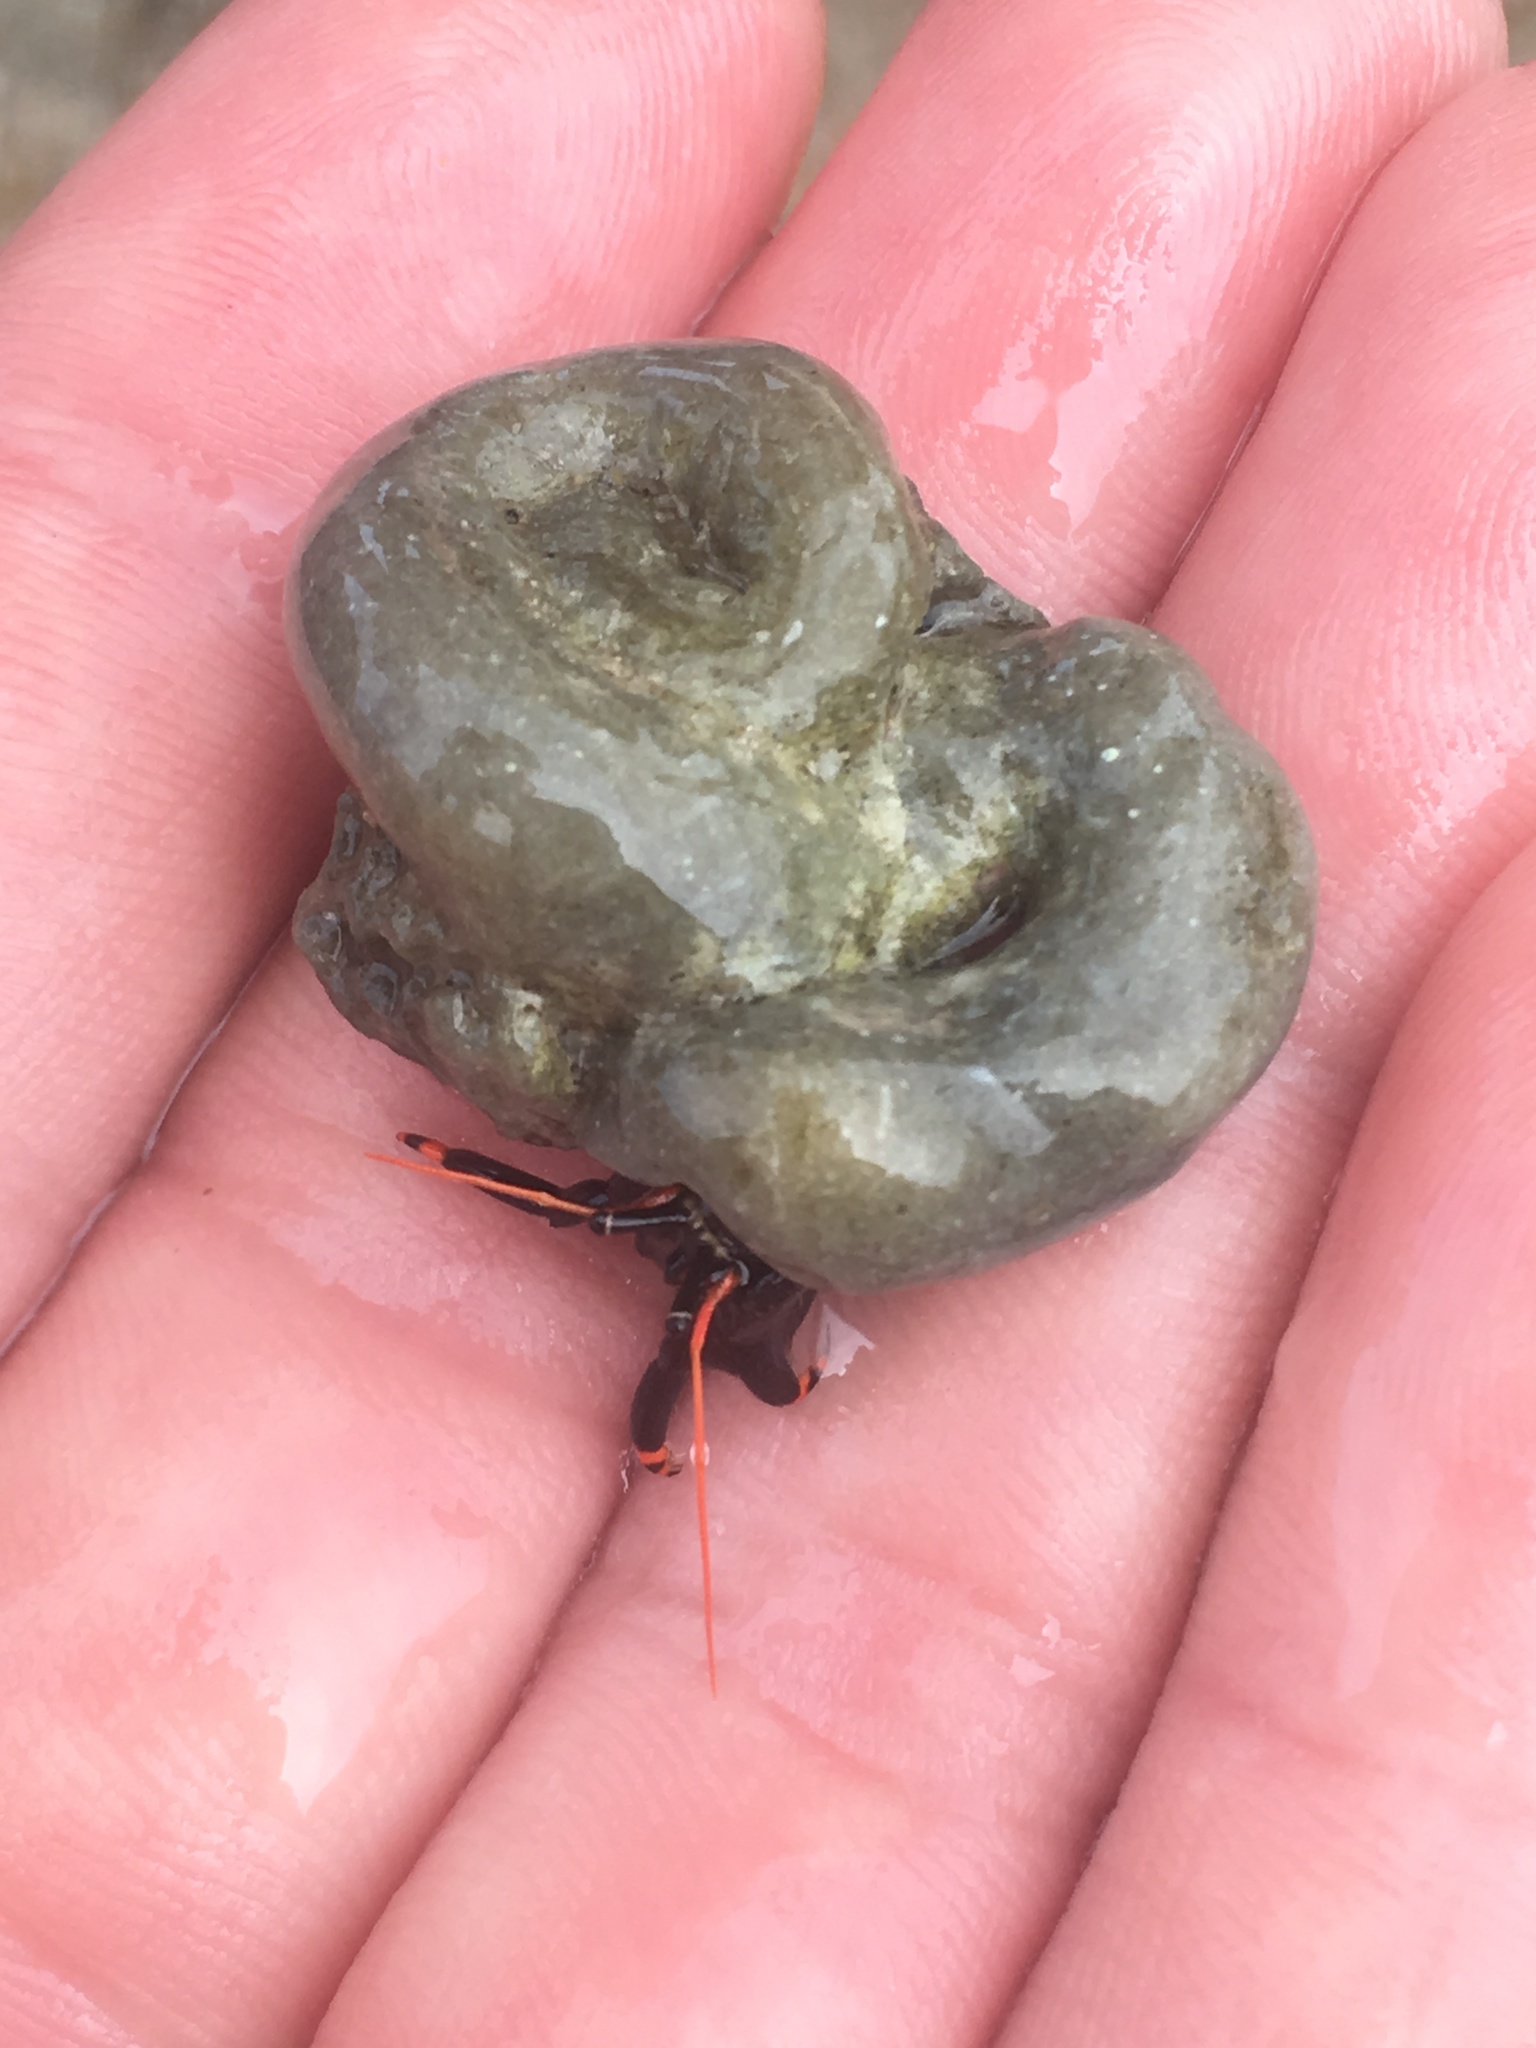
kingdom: Animalia
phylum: Arthropoda
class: Malacostraca
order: Decapoda
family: Diogenidae
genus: Calcinus
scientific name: Calcinus explorator
